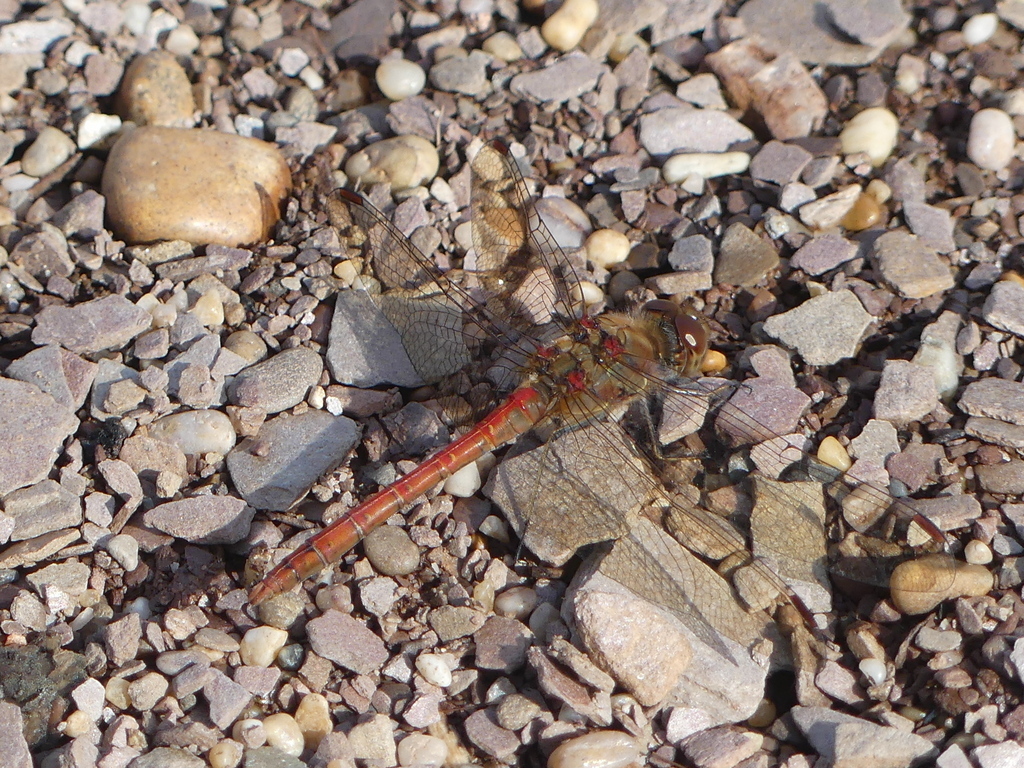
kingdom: Animalia
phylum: Arthropoda
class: Insecta
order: Odonata
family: Libellulidae
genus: Sympetrum
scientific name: Sympetrum striolatum
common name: Common darter
